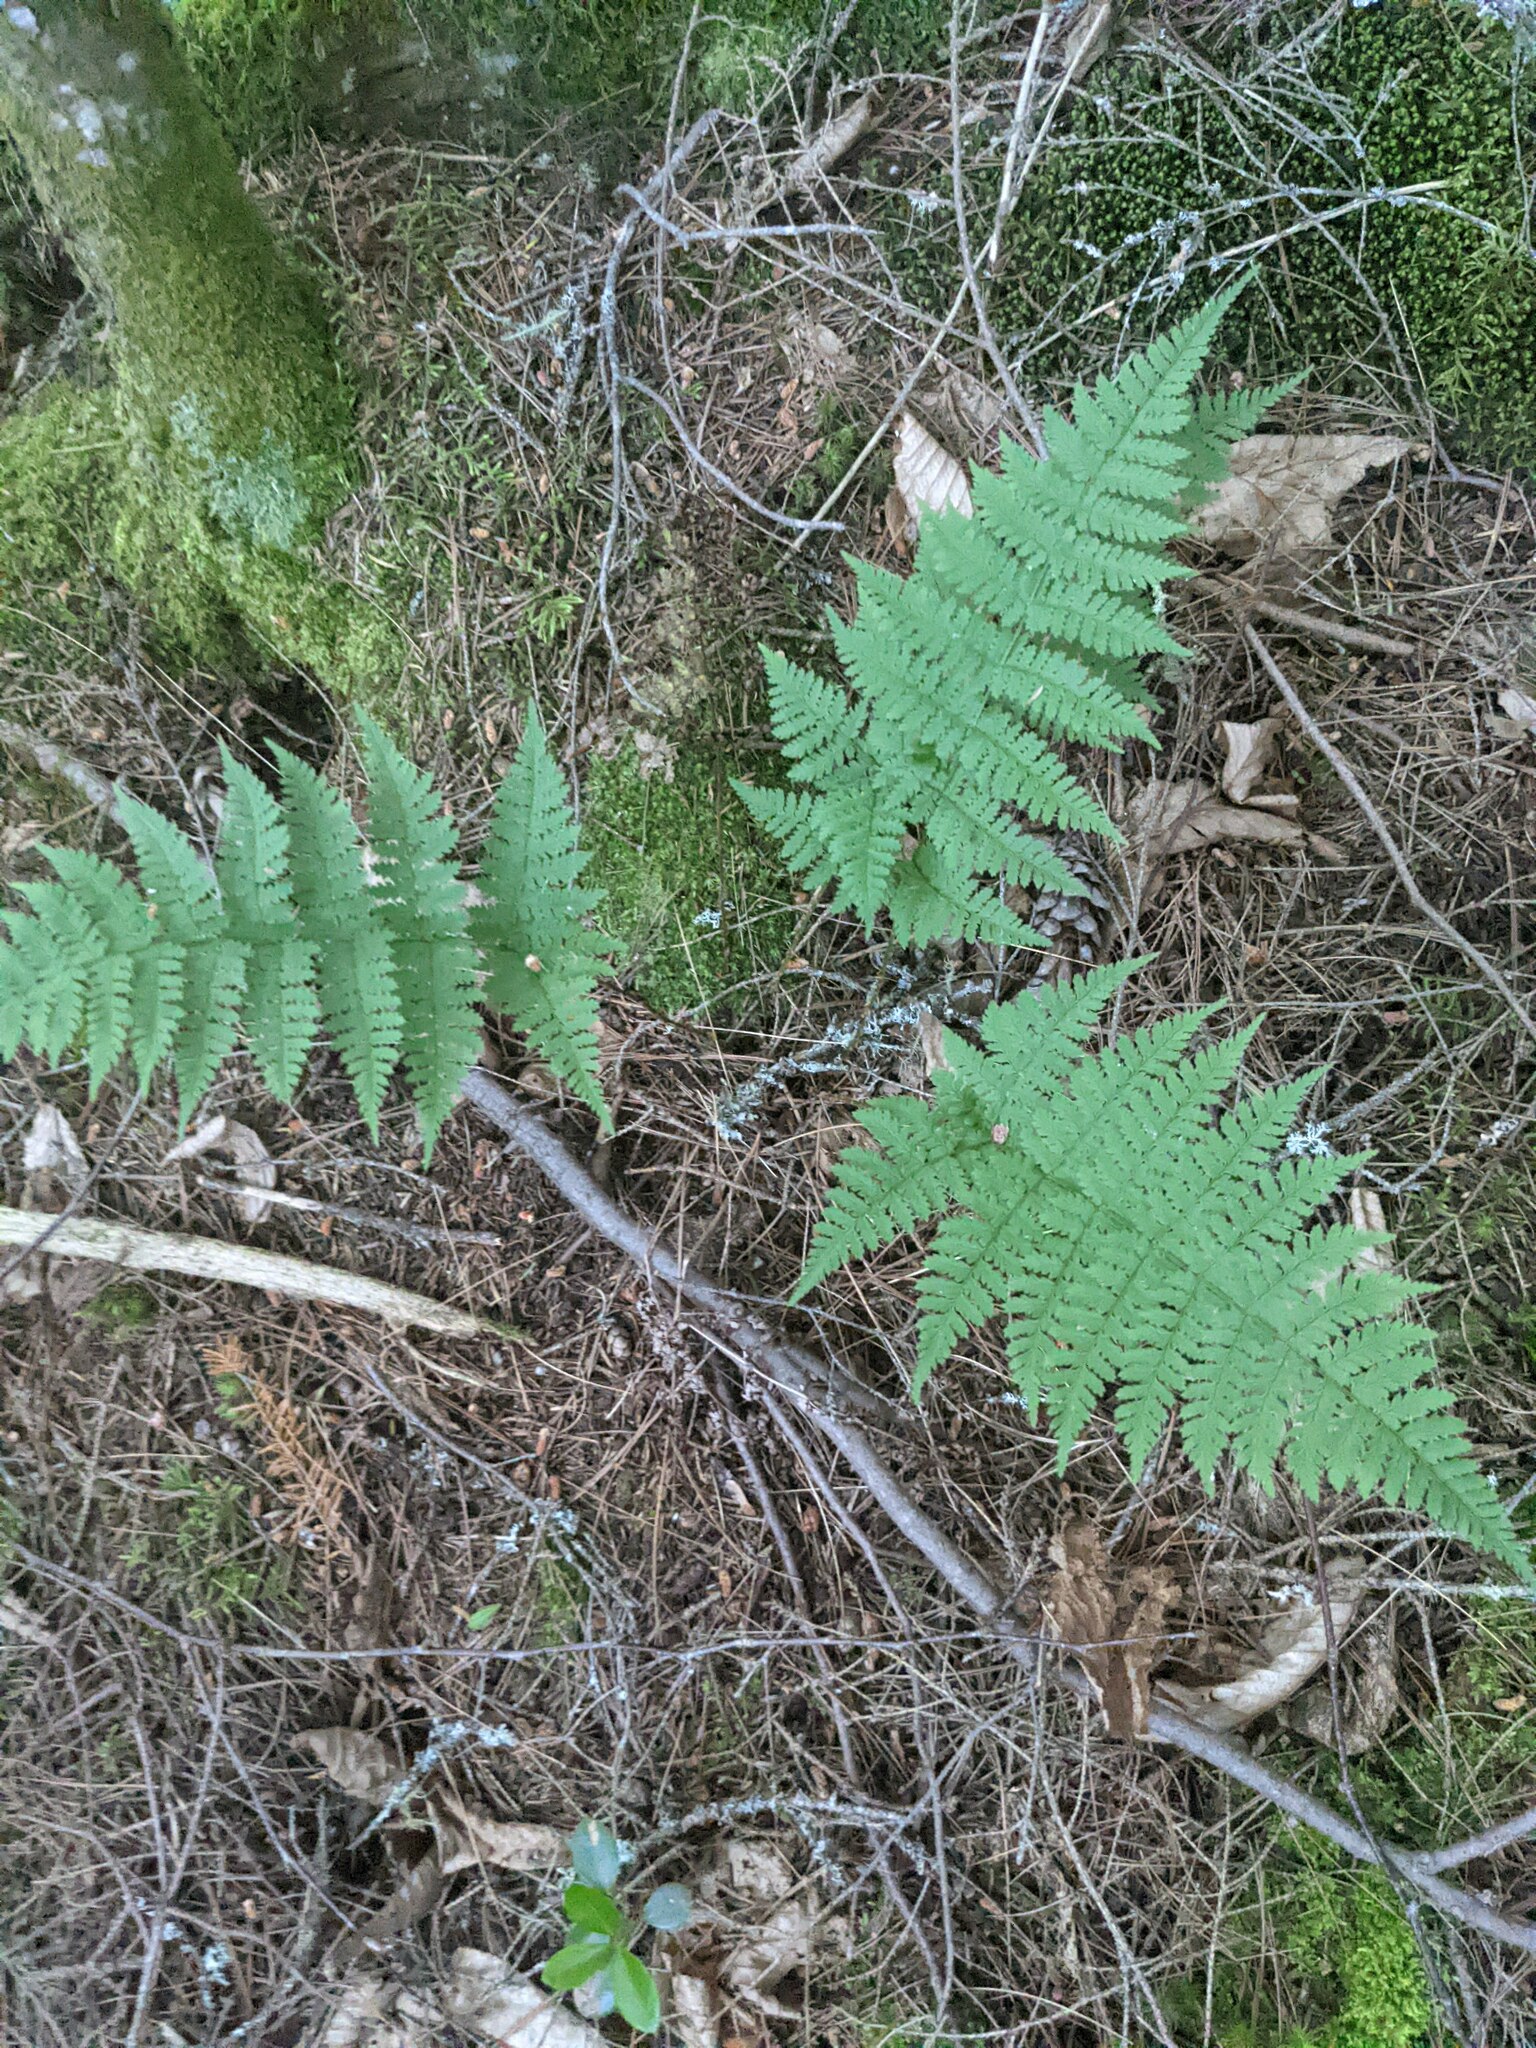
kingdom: Plantae
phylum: Tracheophyta
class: Polypodiopsida
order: Polypodiales
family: Dryopteridaceae
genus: Dryopteris
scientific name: Dryopteris intermedia
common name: Evergreen wood fern
